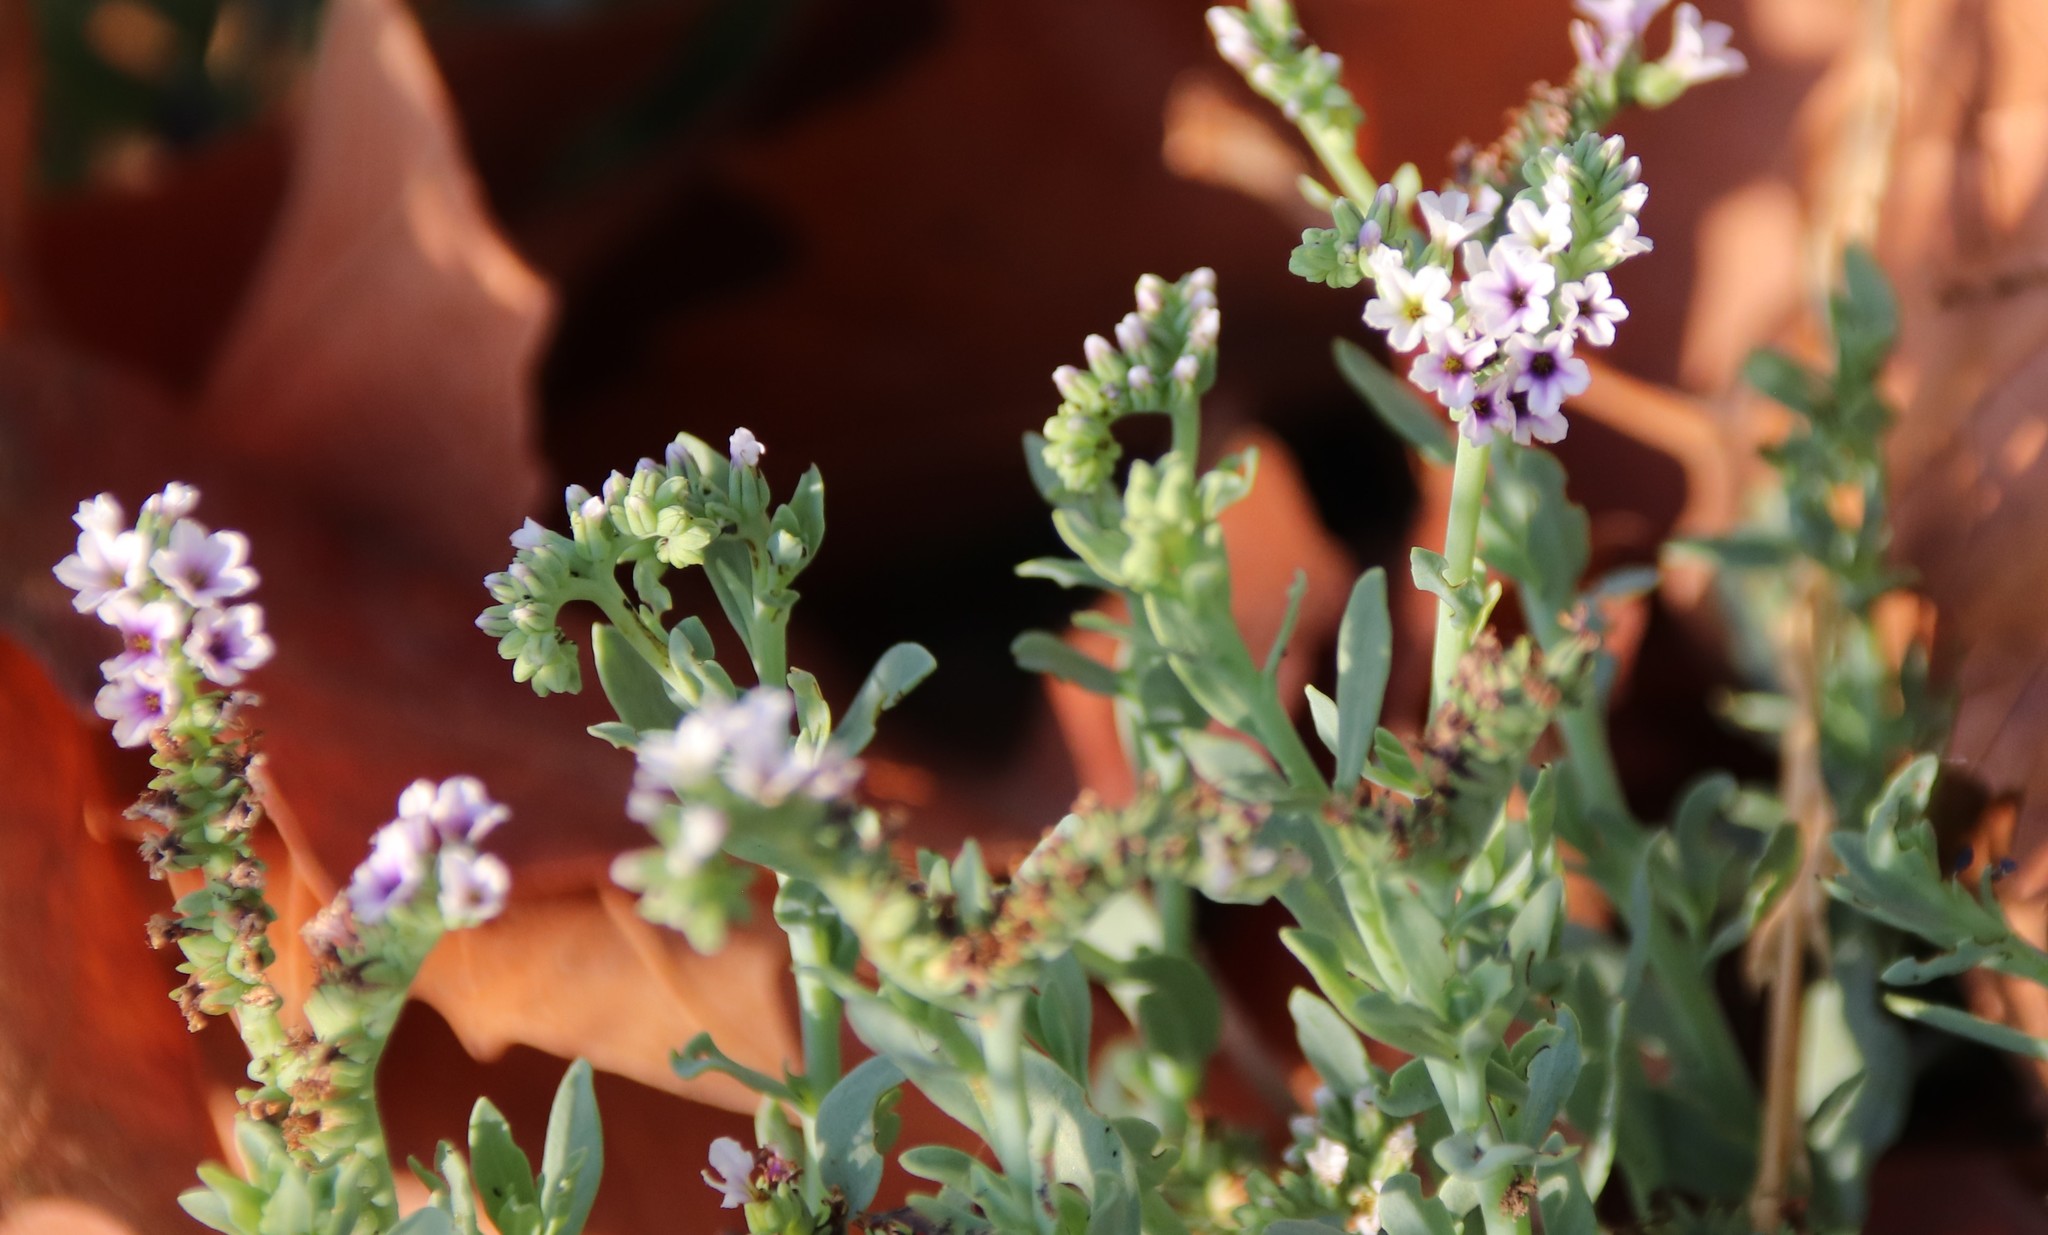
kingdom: Plantae
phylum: Tracheophyta
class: Magnoliopsida
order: Boraginales
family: Heliotropiaceae
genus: Heliotropium
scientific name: Heliotropium curassavicum
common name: Seaside heliotrope
